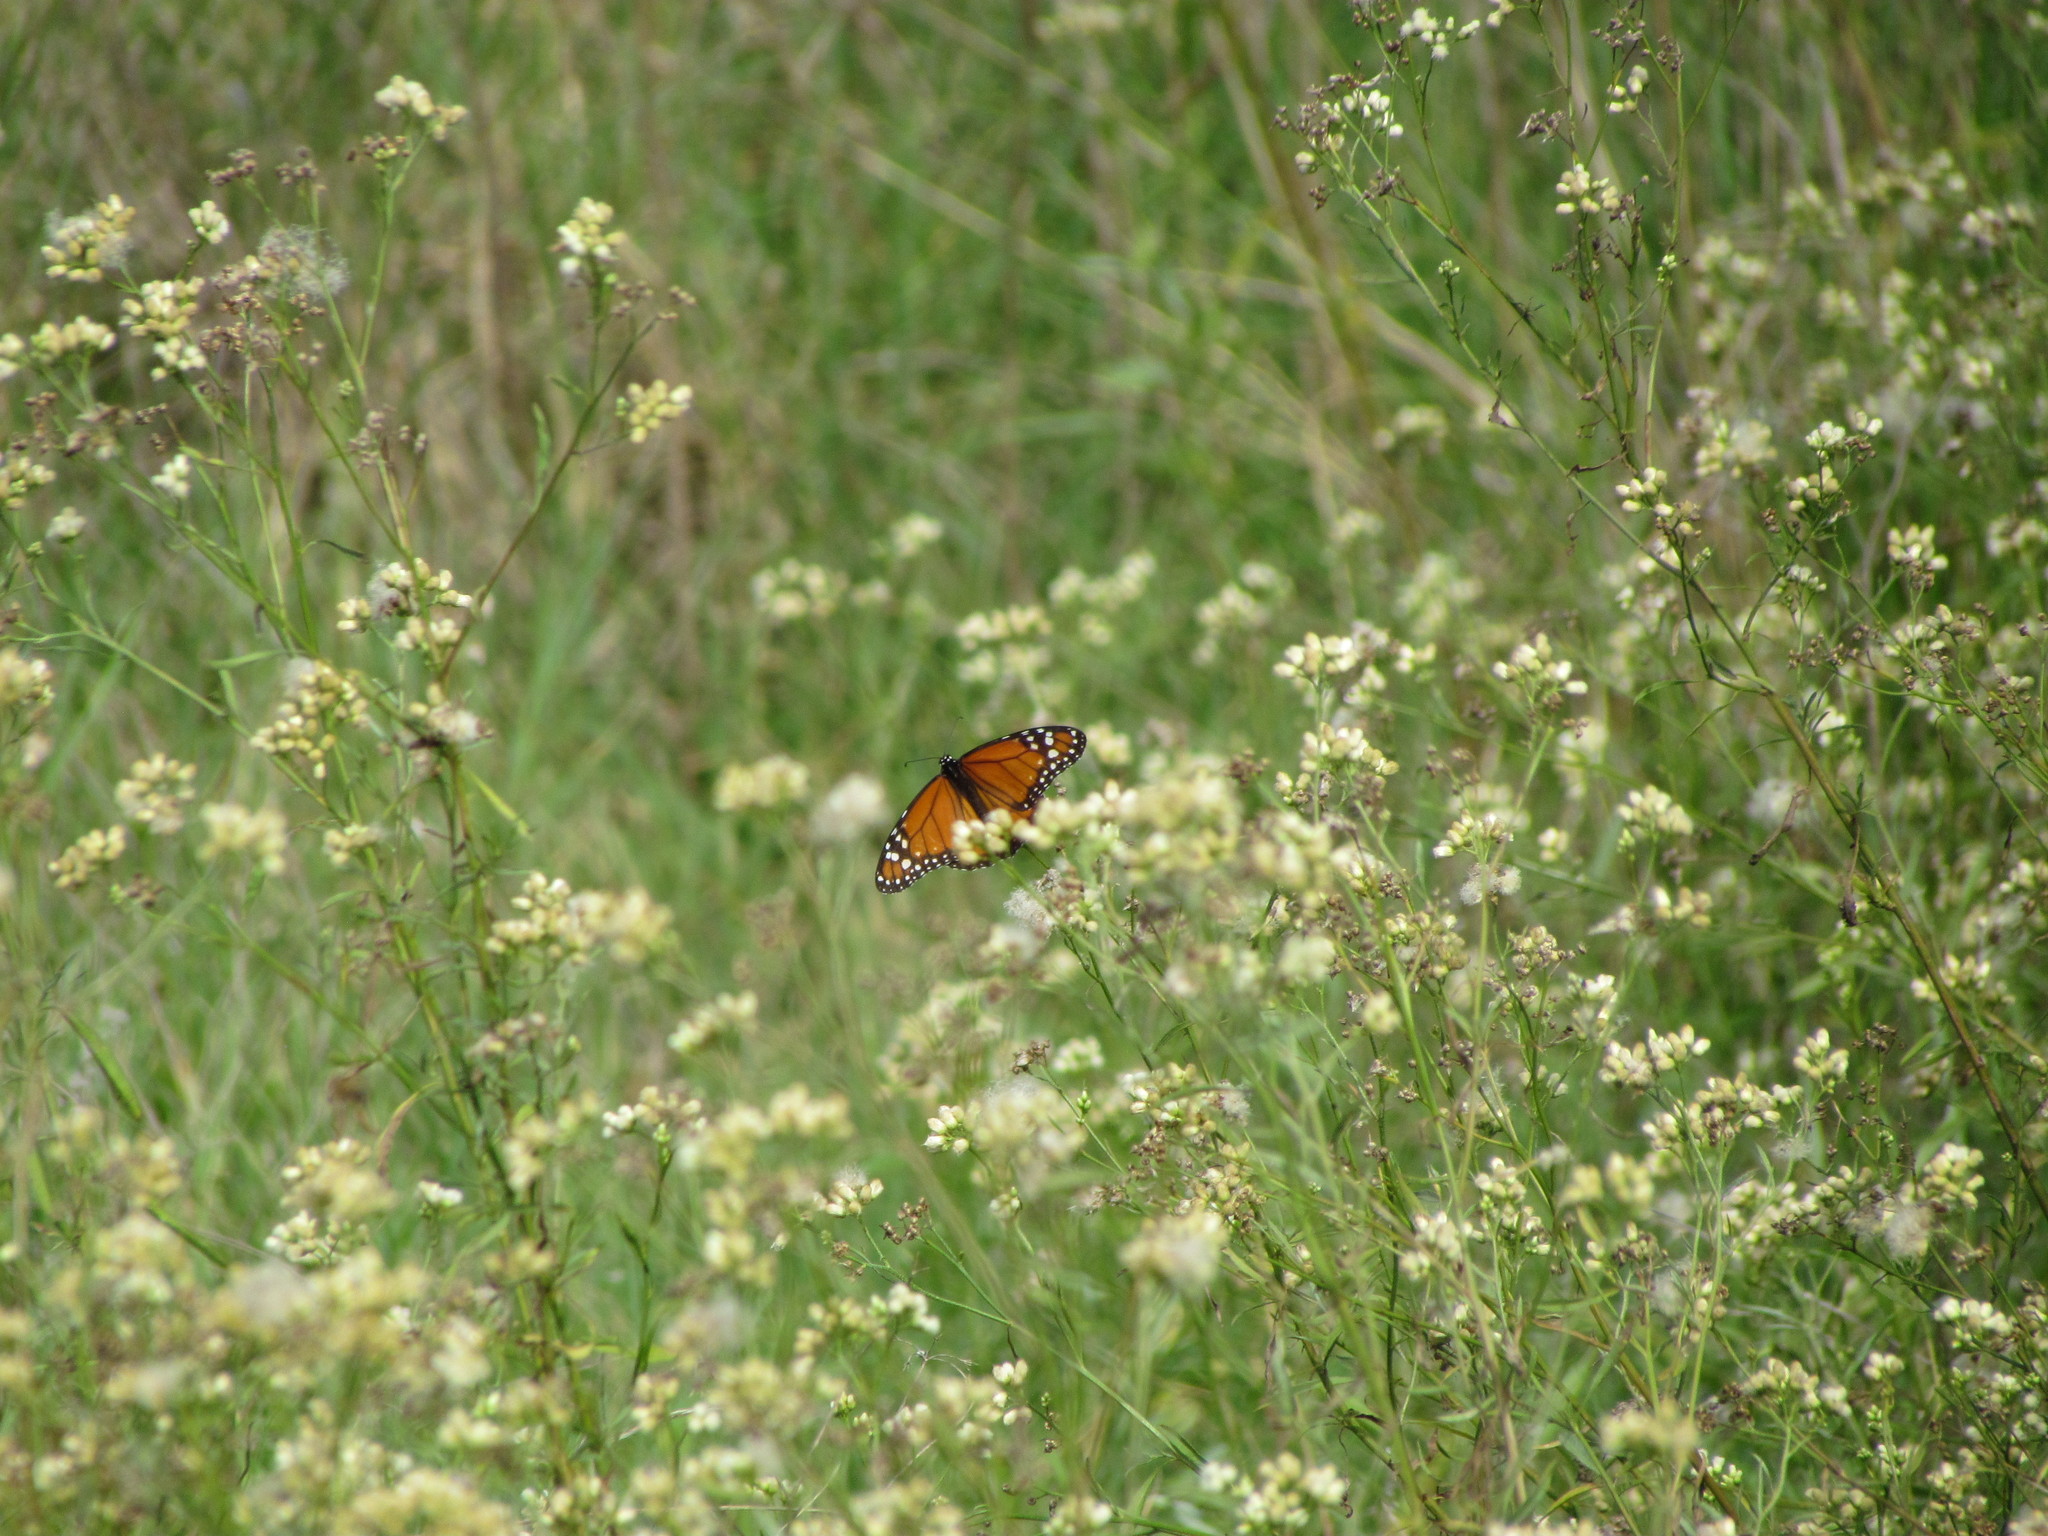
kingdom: Animalia
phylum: Arthropoda
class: Insecta
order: Lepidoptera
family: Nymphalidae
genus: Danaus
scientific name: Danaus erippus
